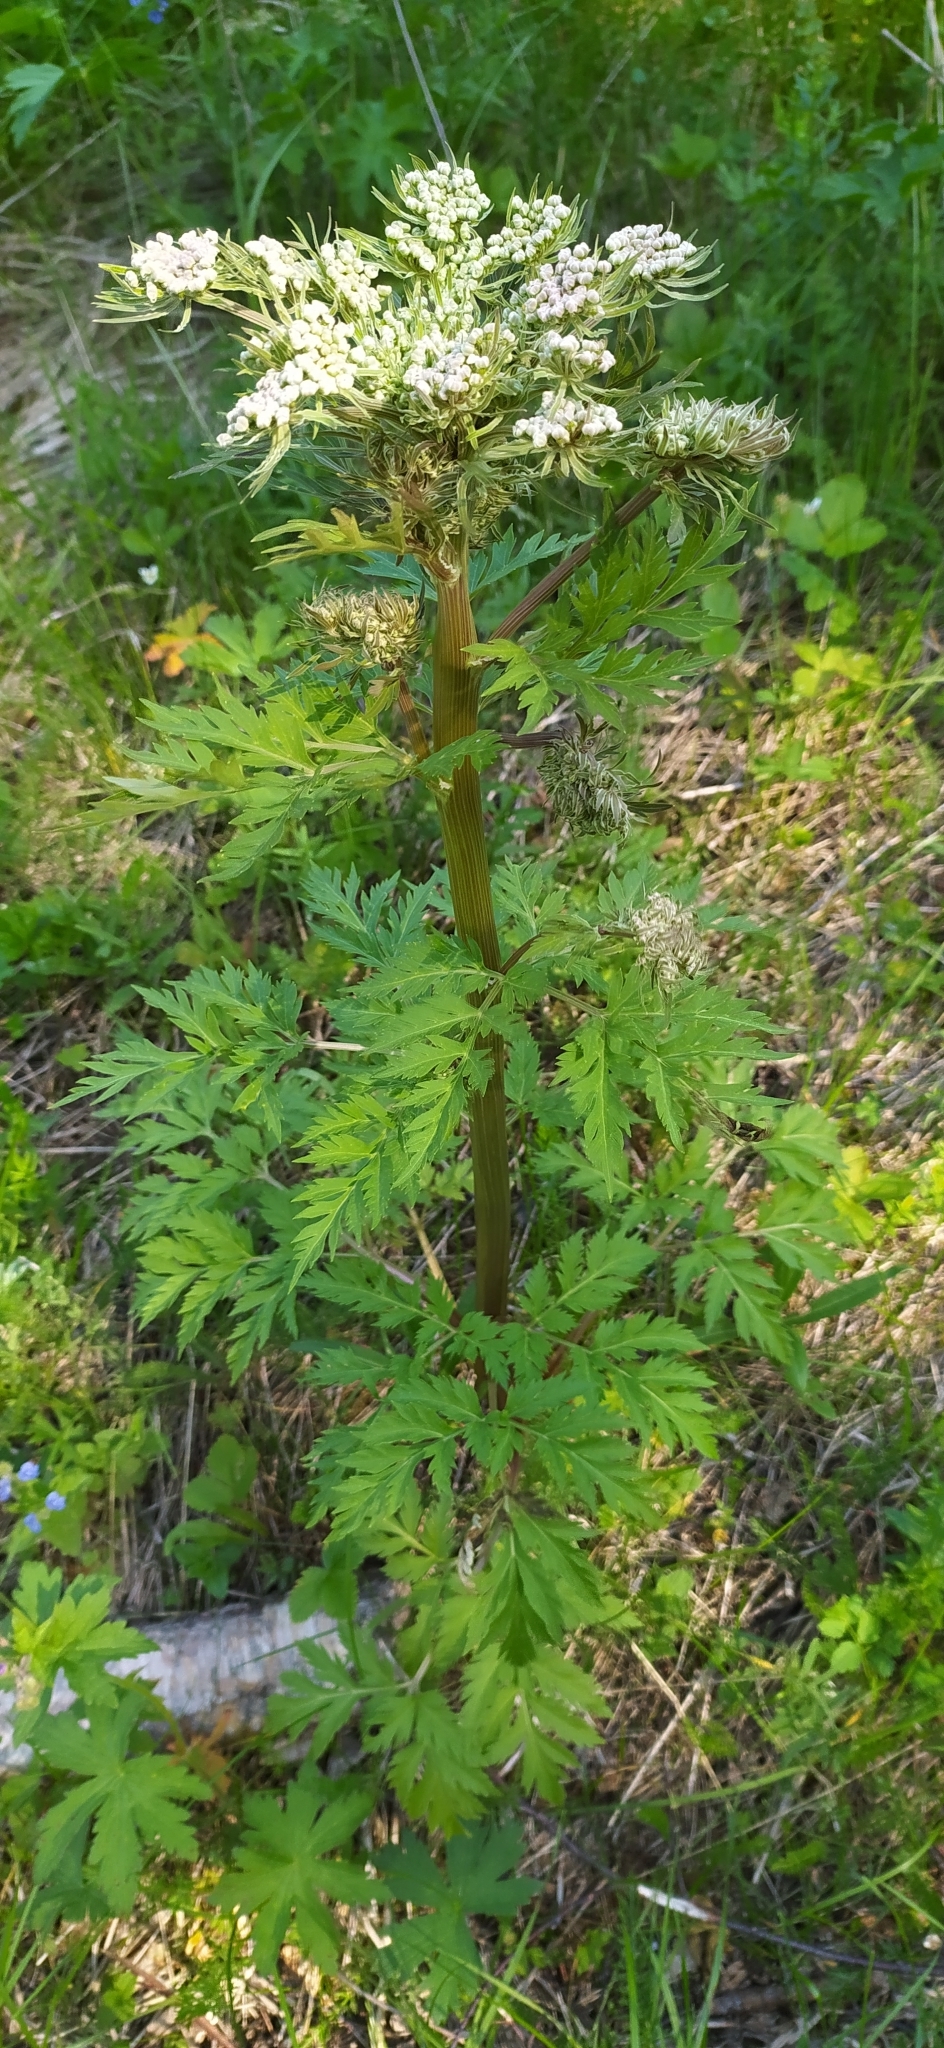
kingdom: Plantae
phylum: Tracheophyta
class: Magnoliopsida
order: Apiales
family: Apiaceae
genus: Pleurospermum
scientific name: Pleurospermum uralense
